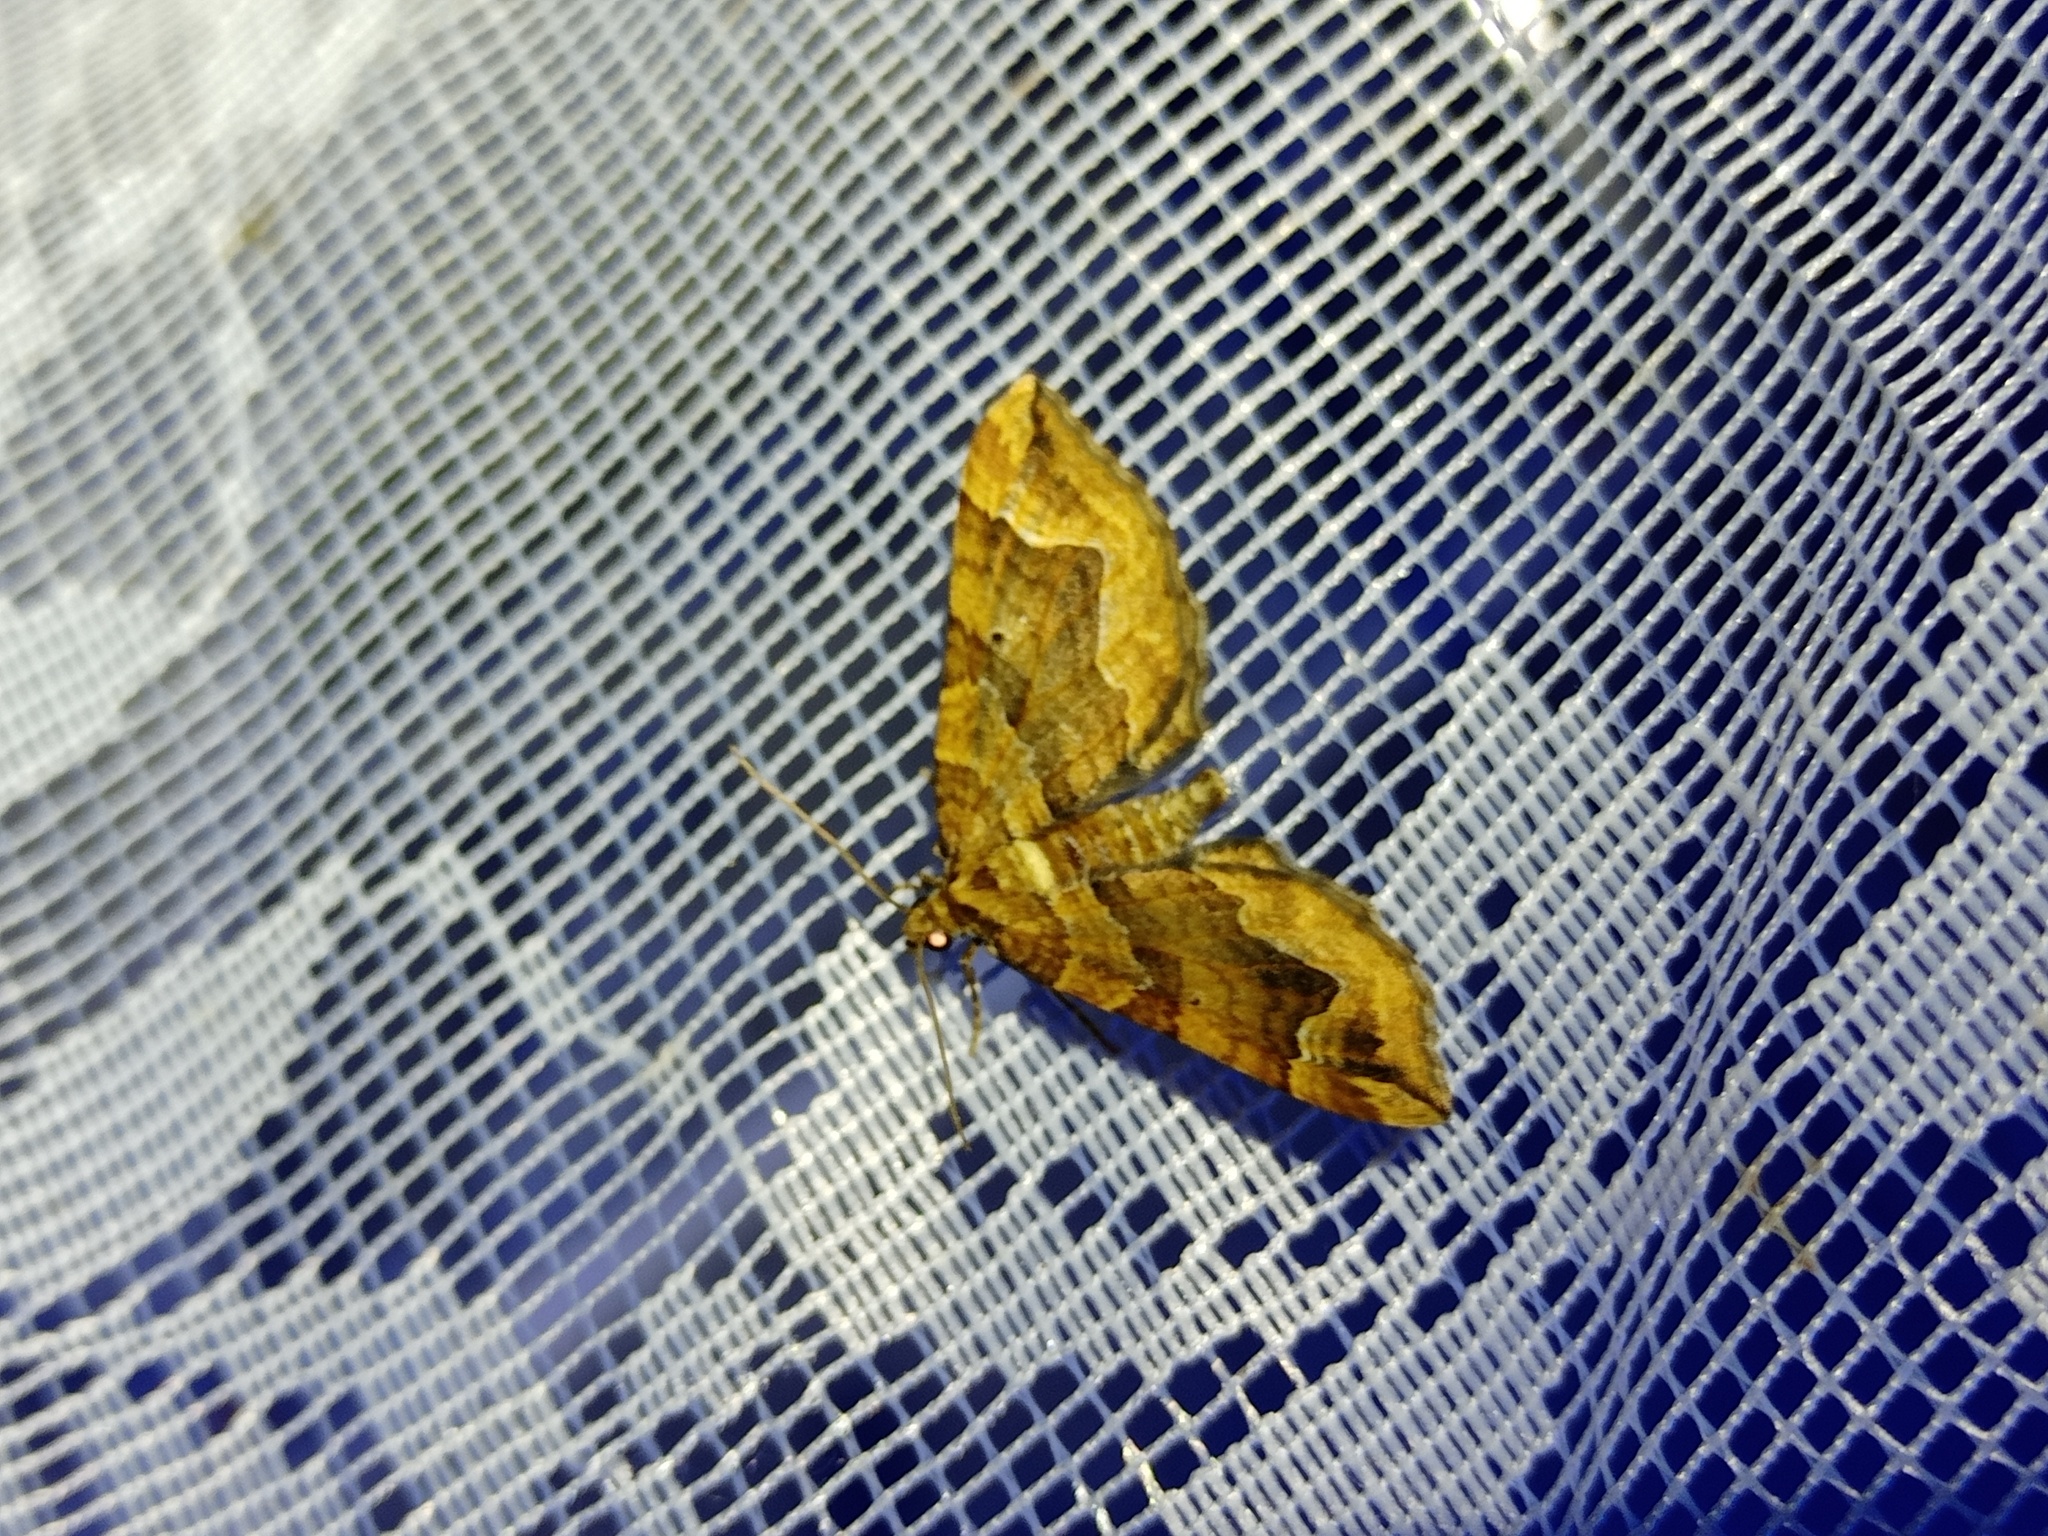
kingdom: Animalia
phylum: Arthropoda
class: Insecta
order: Lepidoptera
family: Geometridae
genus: Pelurga
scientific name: Pelurga comitata
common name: Dark spinach
